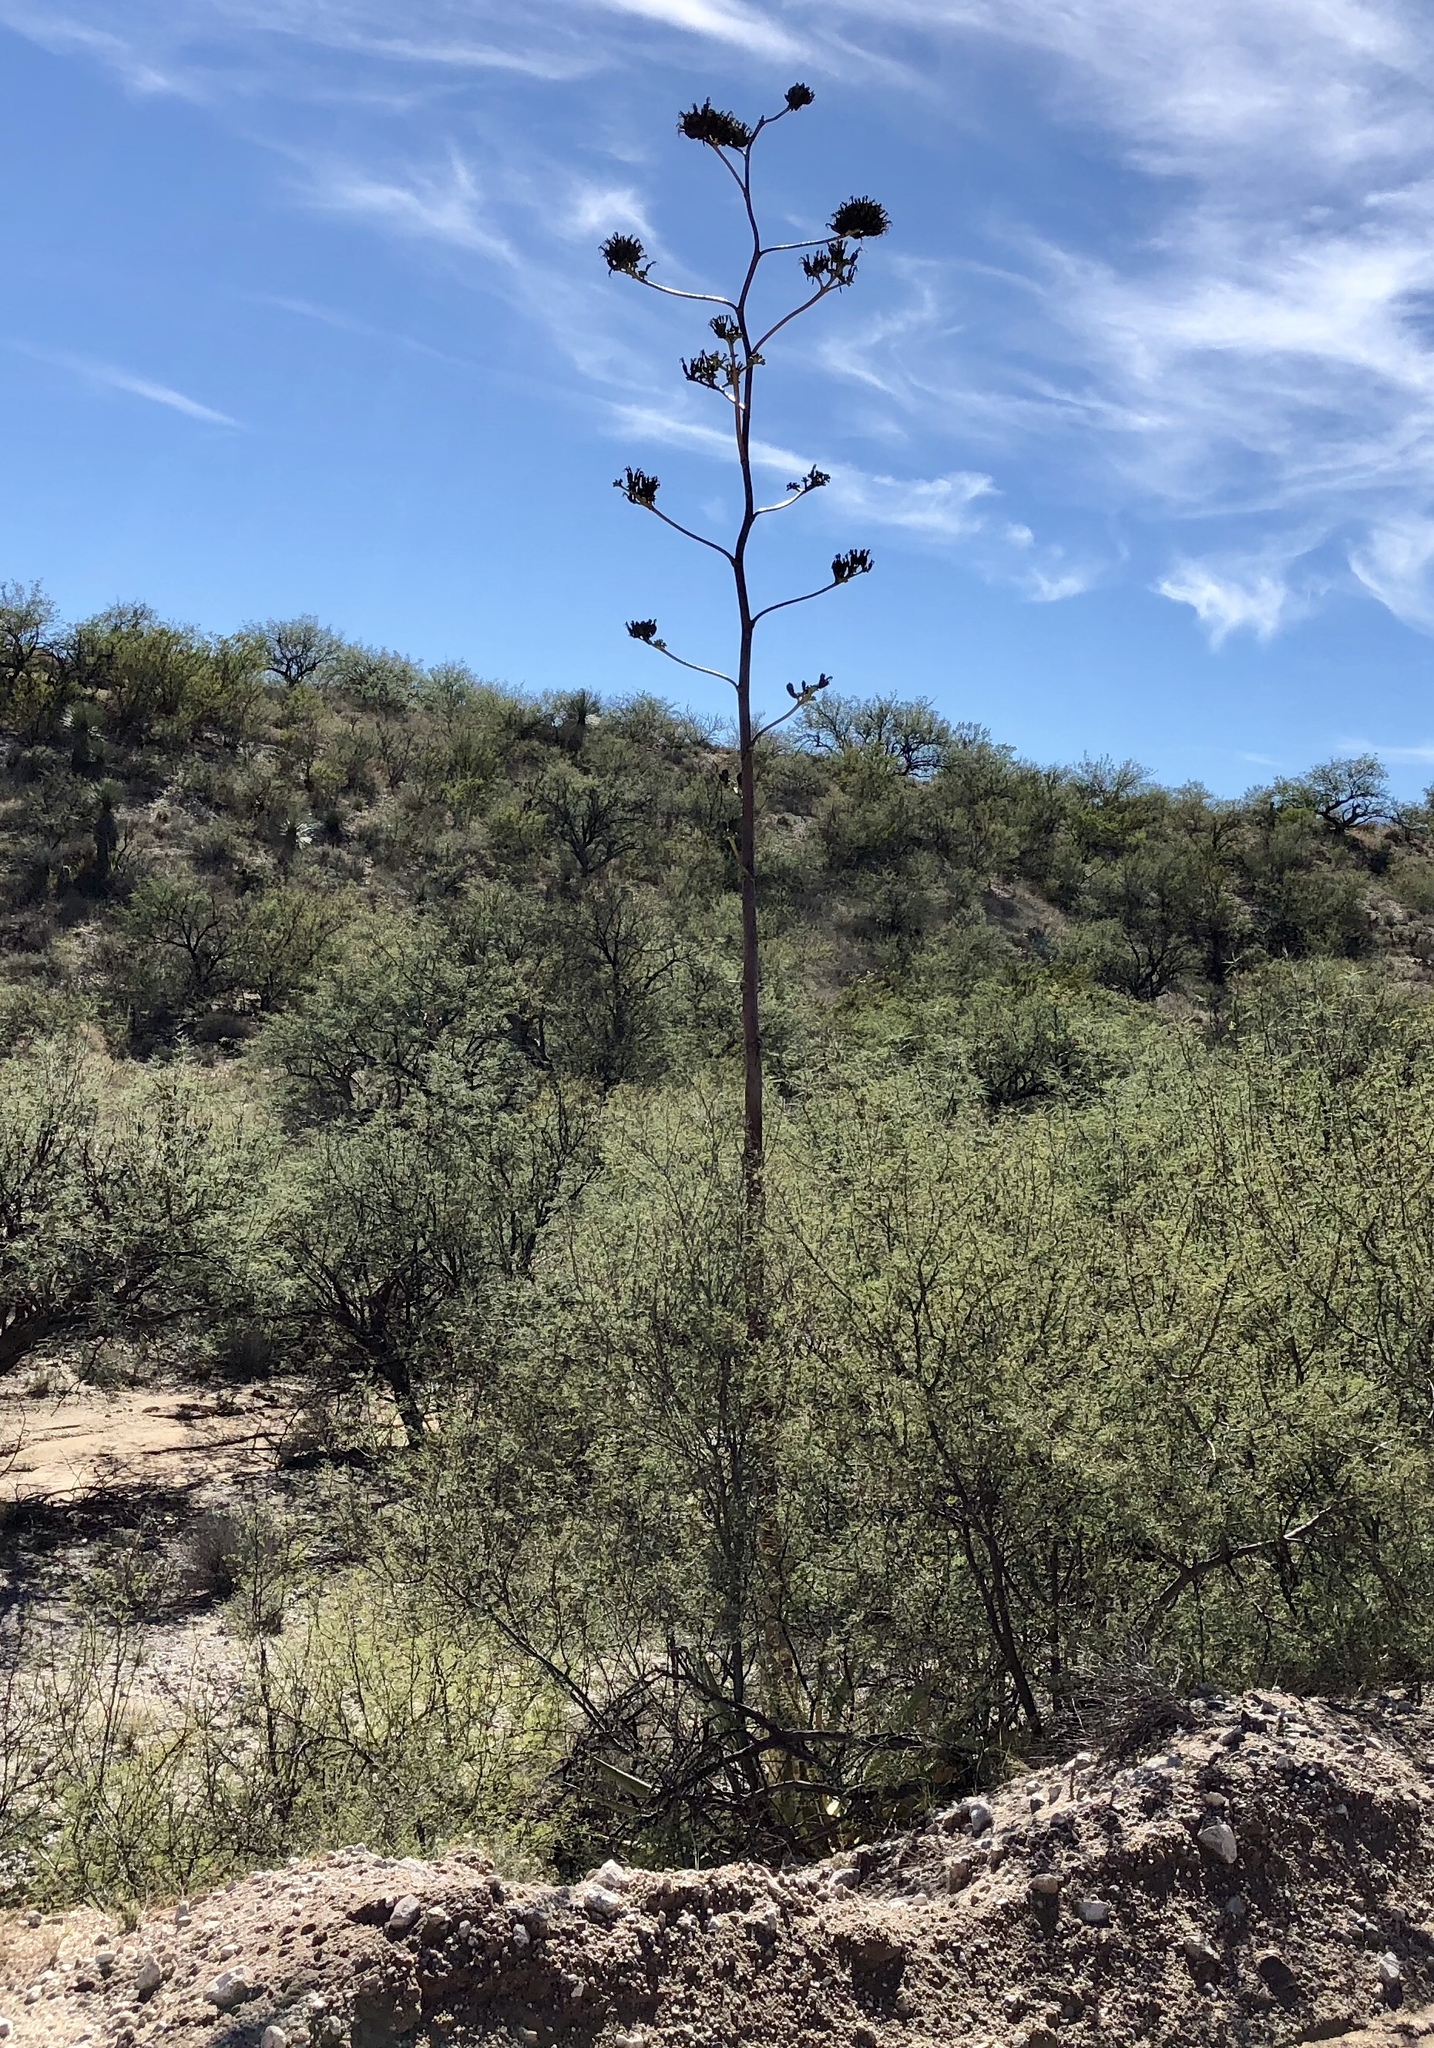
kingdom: Plantae
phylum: Tracheophyta
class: Liliopsida
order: Asparagales
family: Asparagaceae
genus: Agave
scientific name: Agave palmeri
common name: Palmer agave
